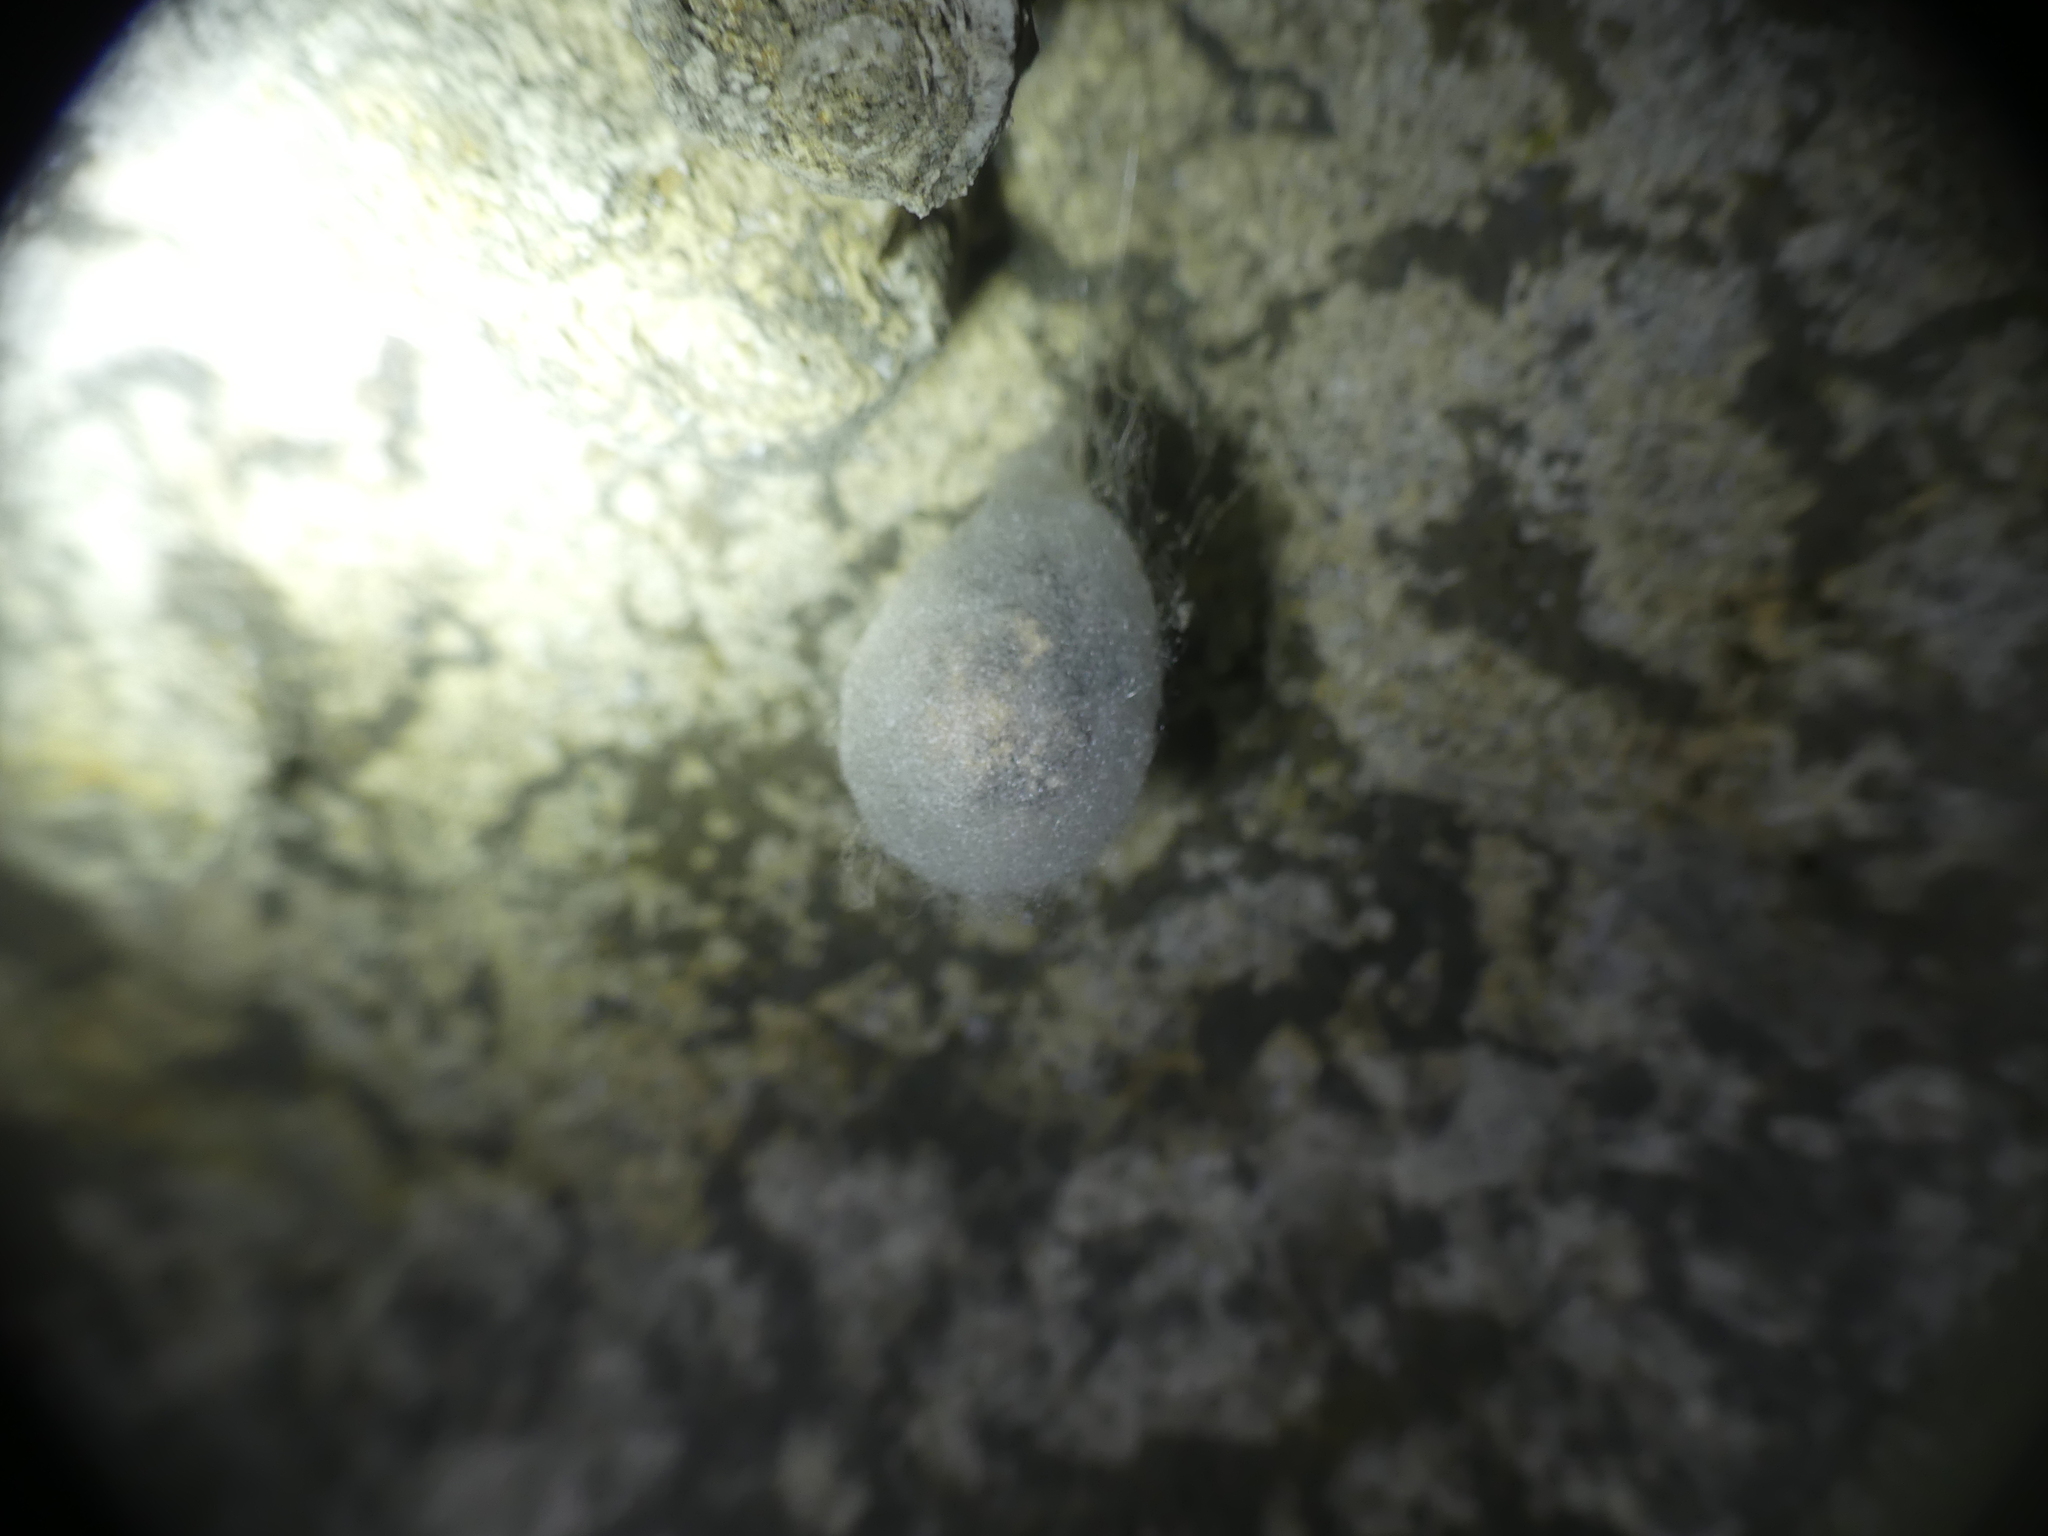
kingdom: Animalia
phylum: Arthropoda
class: Arachnida
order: Araneae
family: Tetragnathidae
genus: Meta
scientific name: Meta menardi
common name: Cave spider
